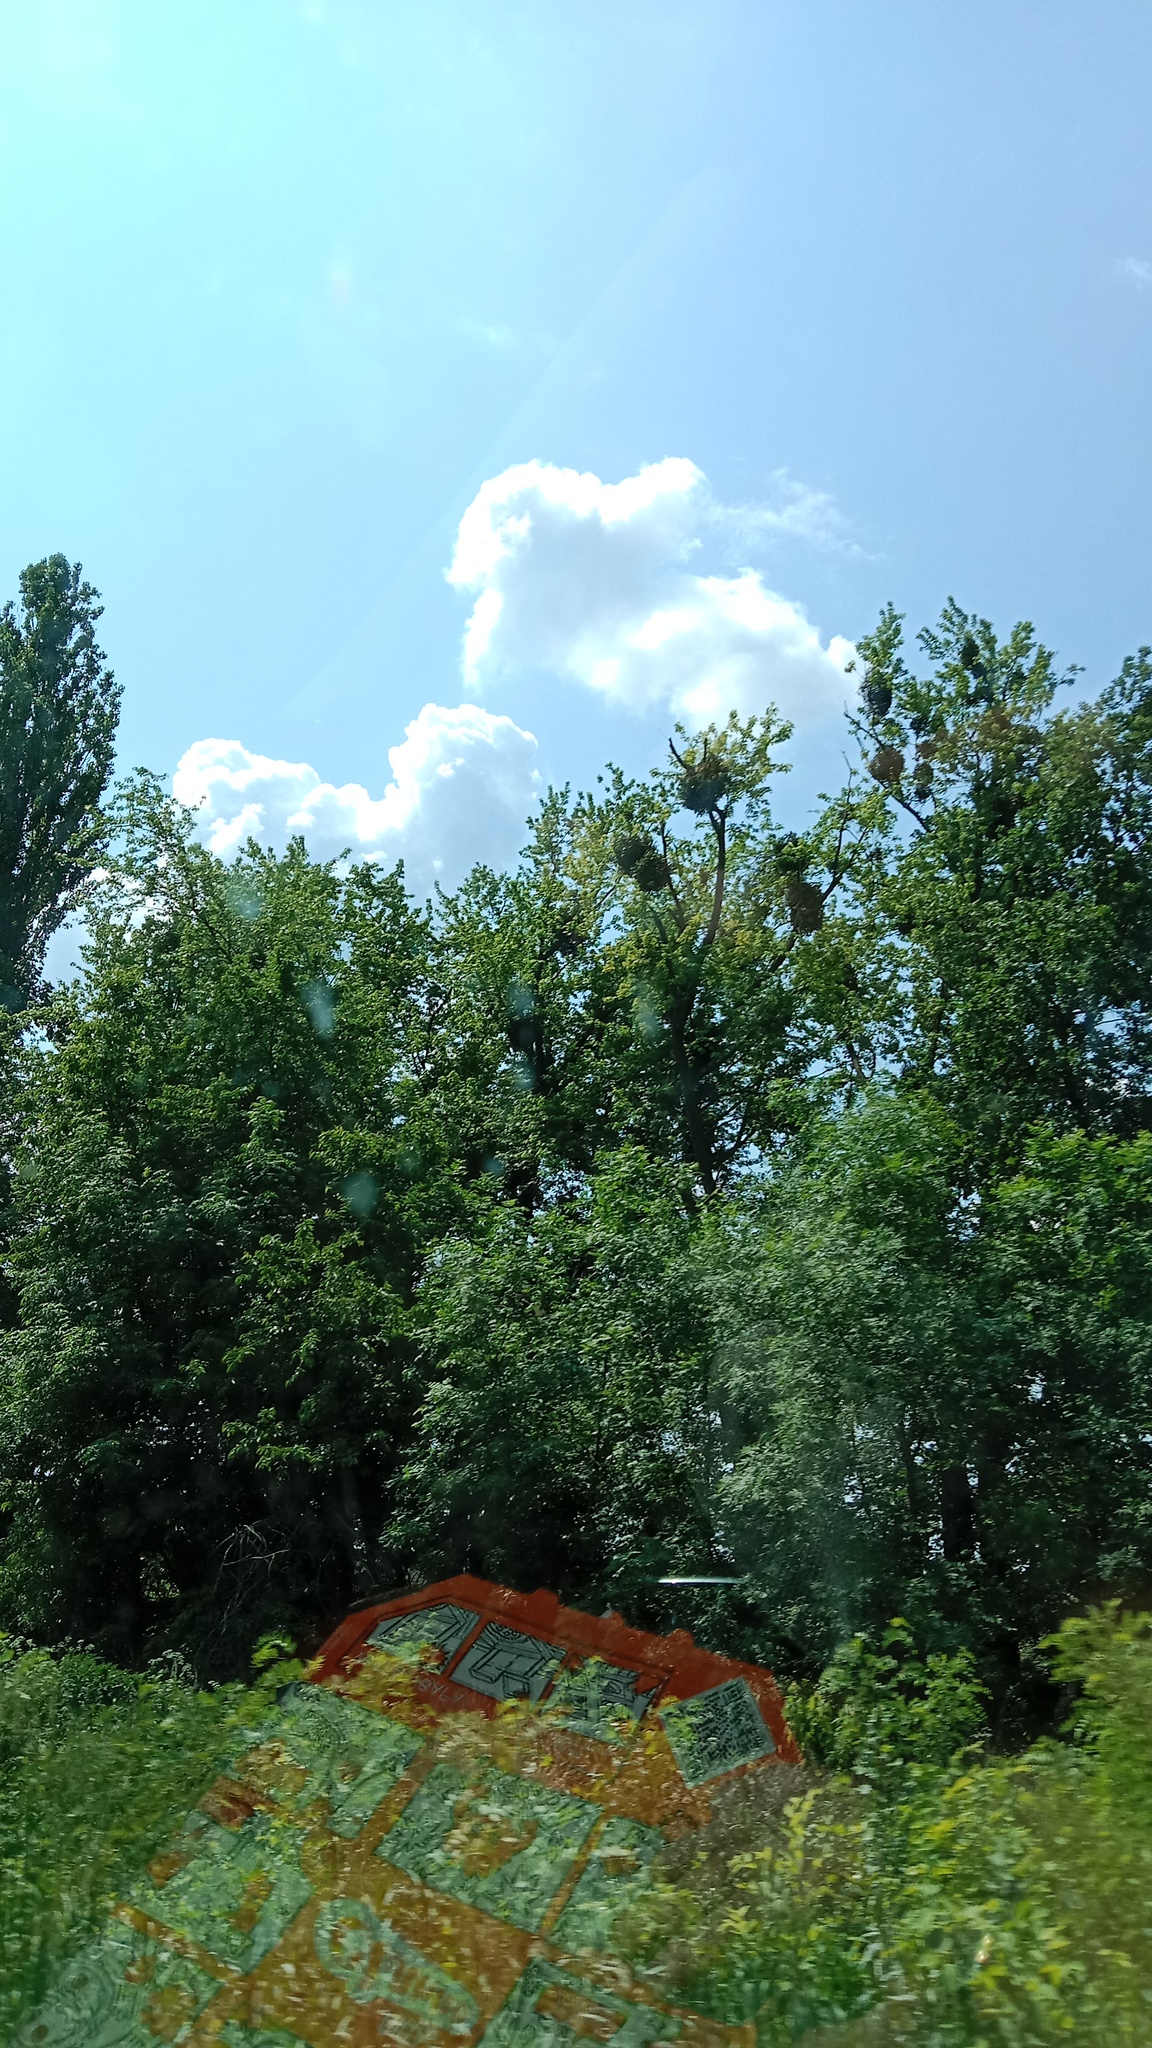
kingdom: Plantae
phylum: Tracheophyta
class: Magnoliopsida
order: Santalales
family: Viscaceae
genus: Viscum
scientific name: Viscum album
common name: Mistletoe
